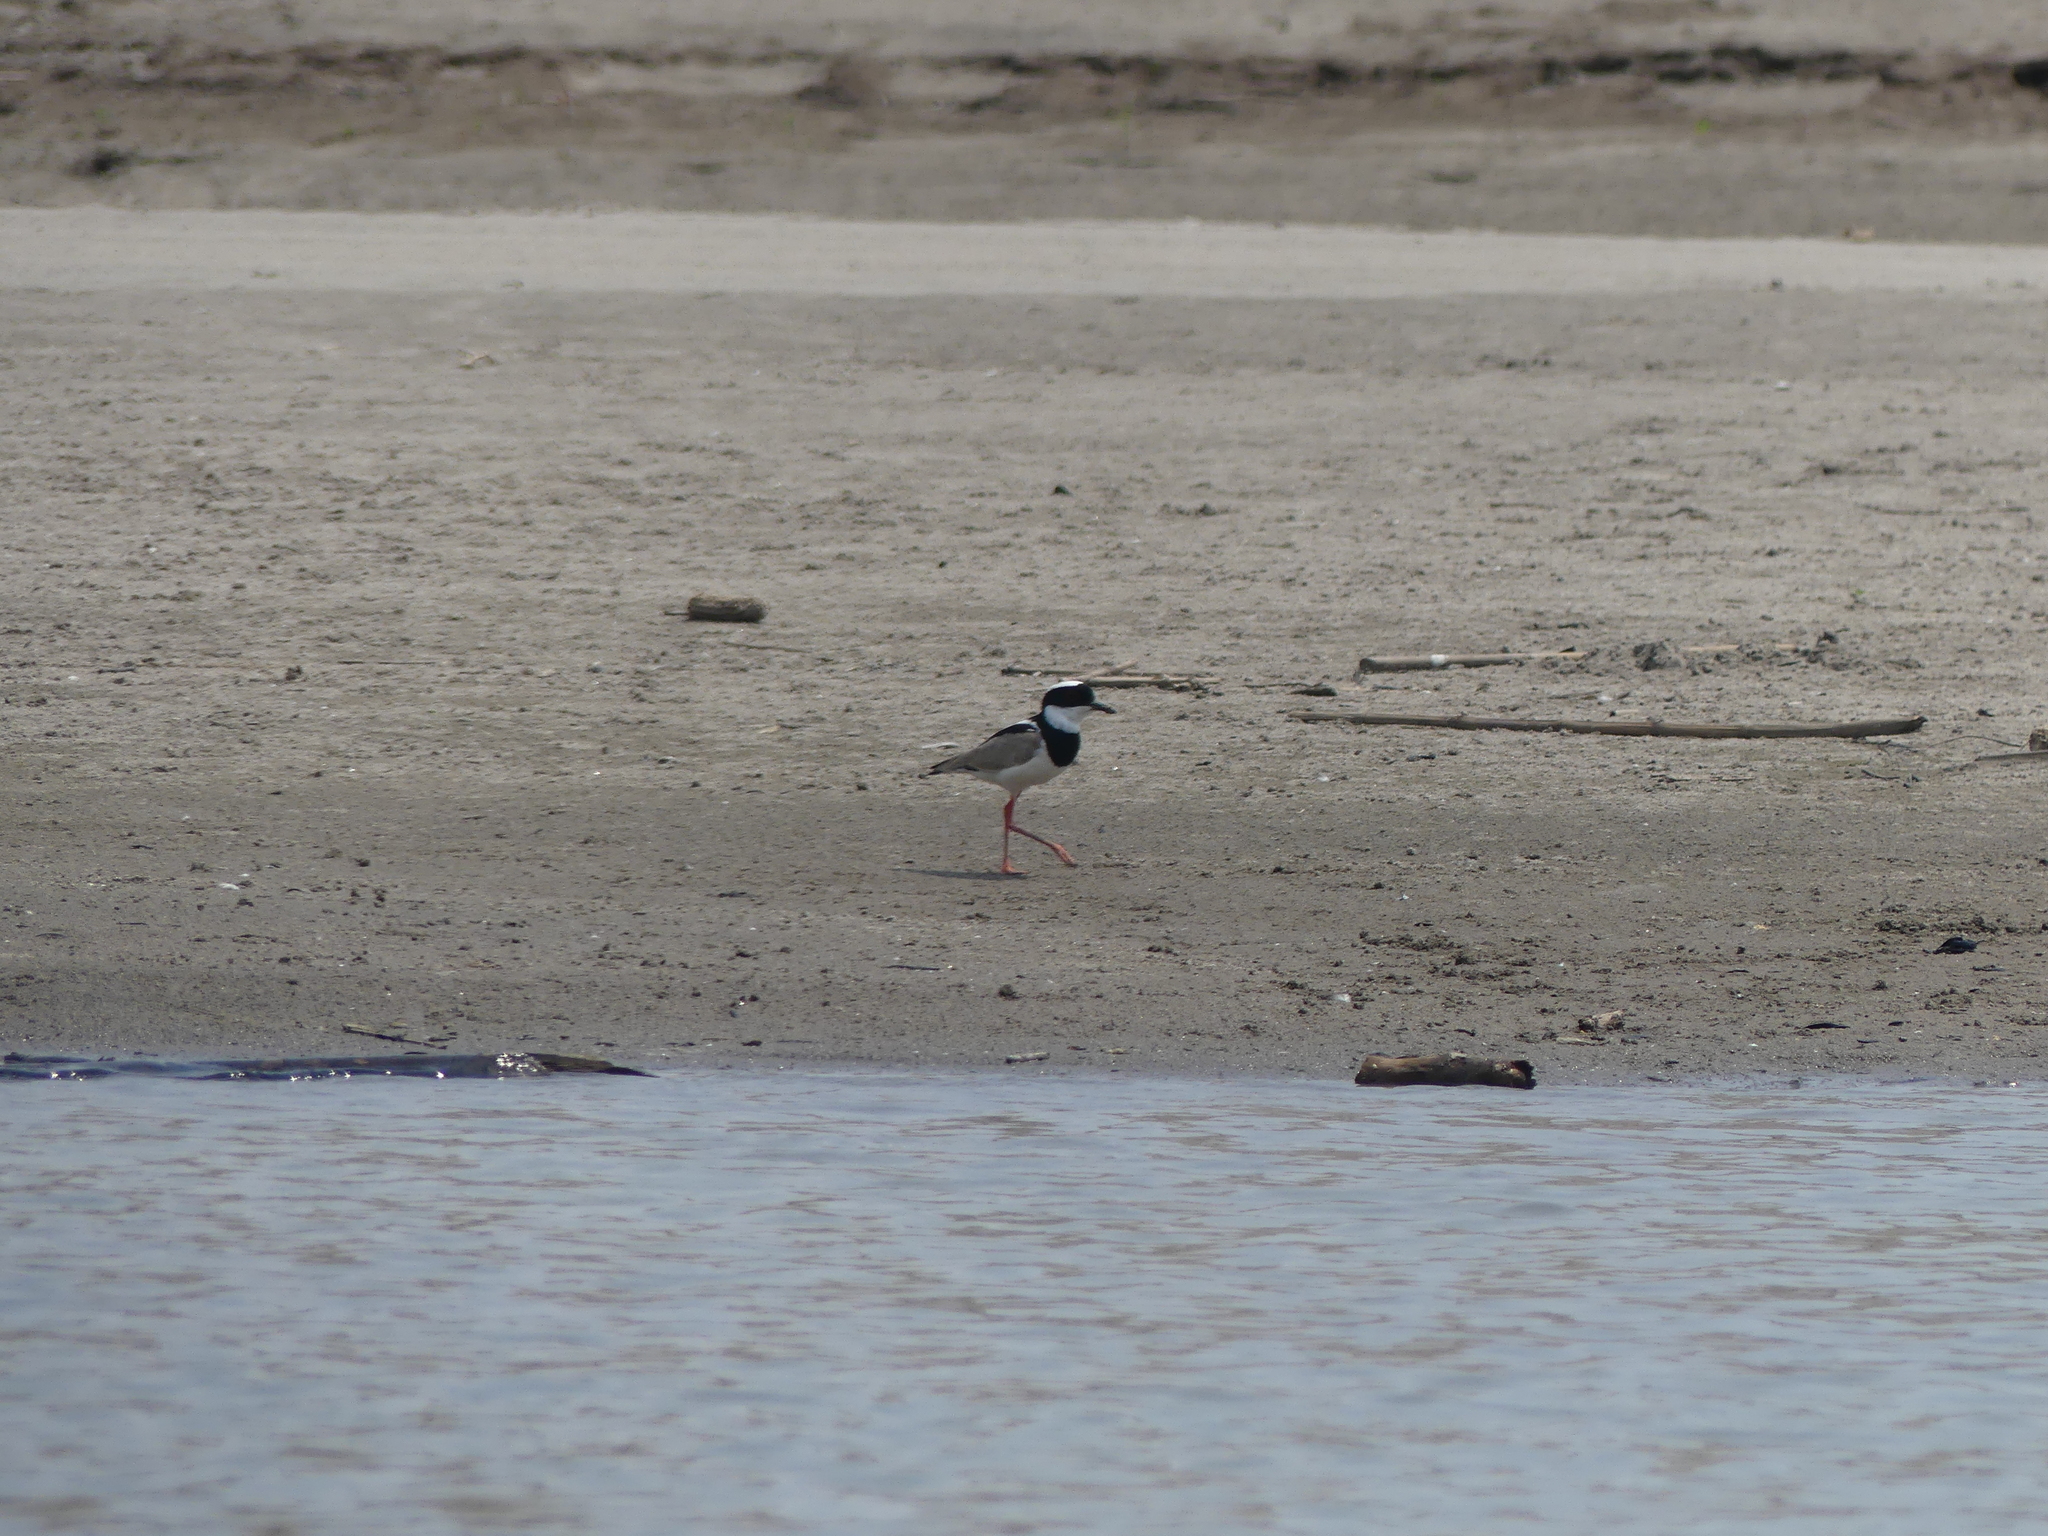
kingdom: Animalia
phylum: Chordata
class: Aves
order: Charadriiformes
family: Charadriidae
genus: Hoploxypterus
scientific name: Hoploxypterus cayanus
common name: Pied plover
